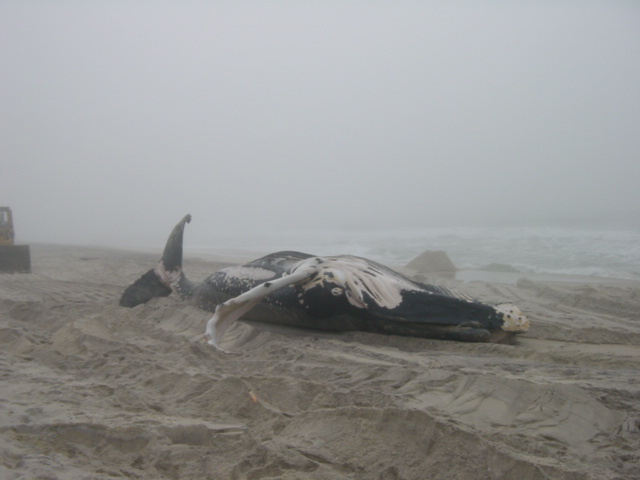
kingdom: Animalia
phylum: Chordata
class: Mammalia
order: Cetacea
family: Balaenopteridae
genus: Megaptera
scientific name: Megaptera novaeangliae
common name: Humpback whale
